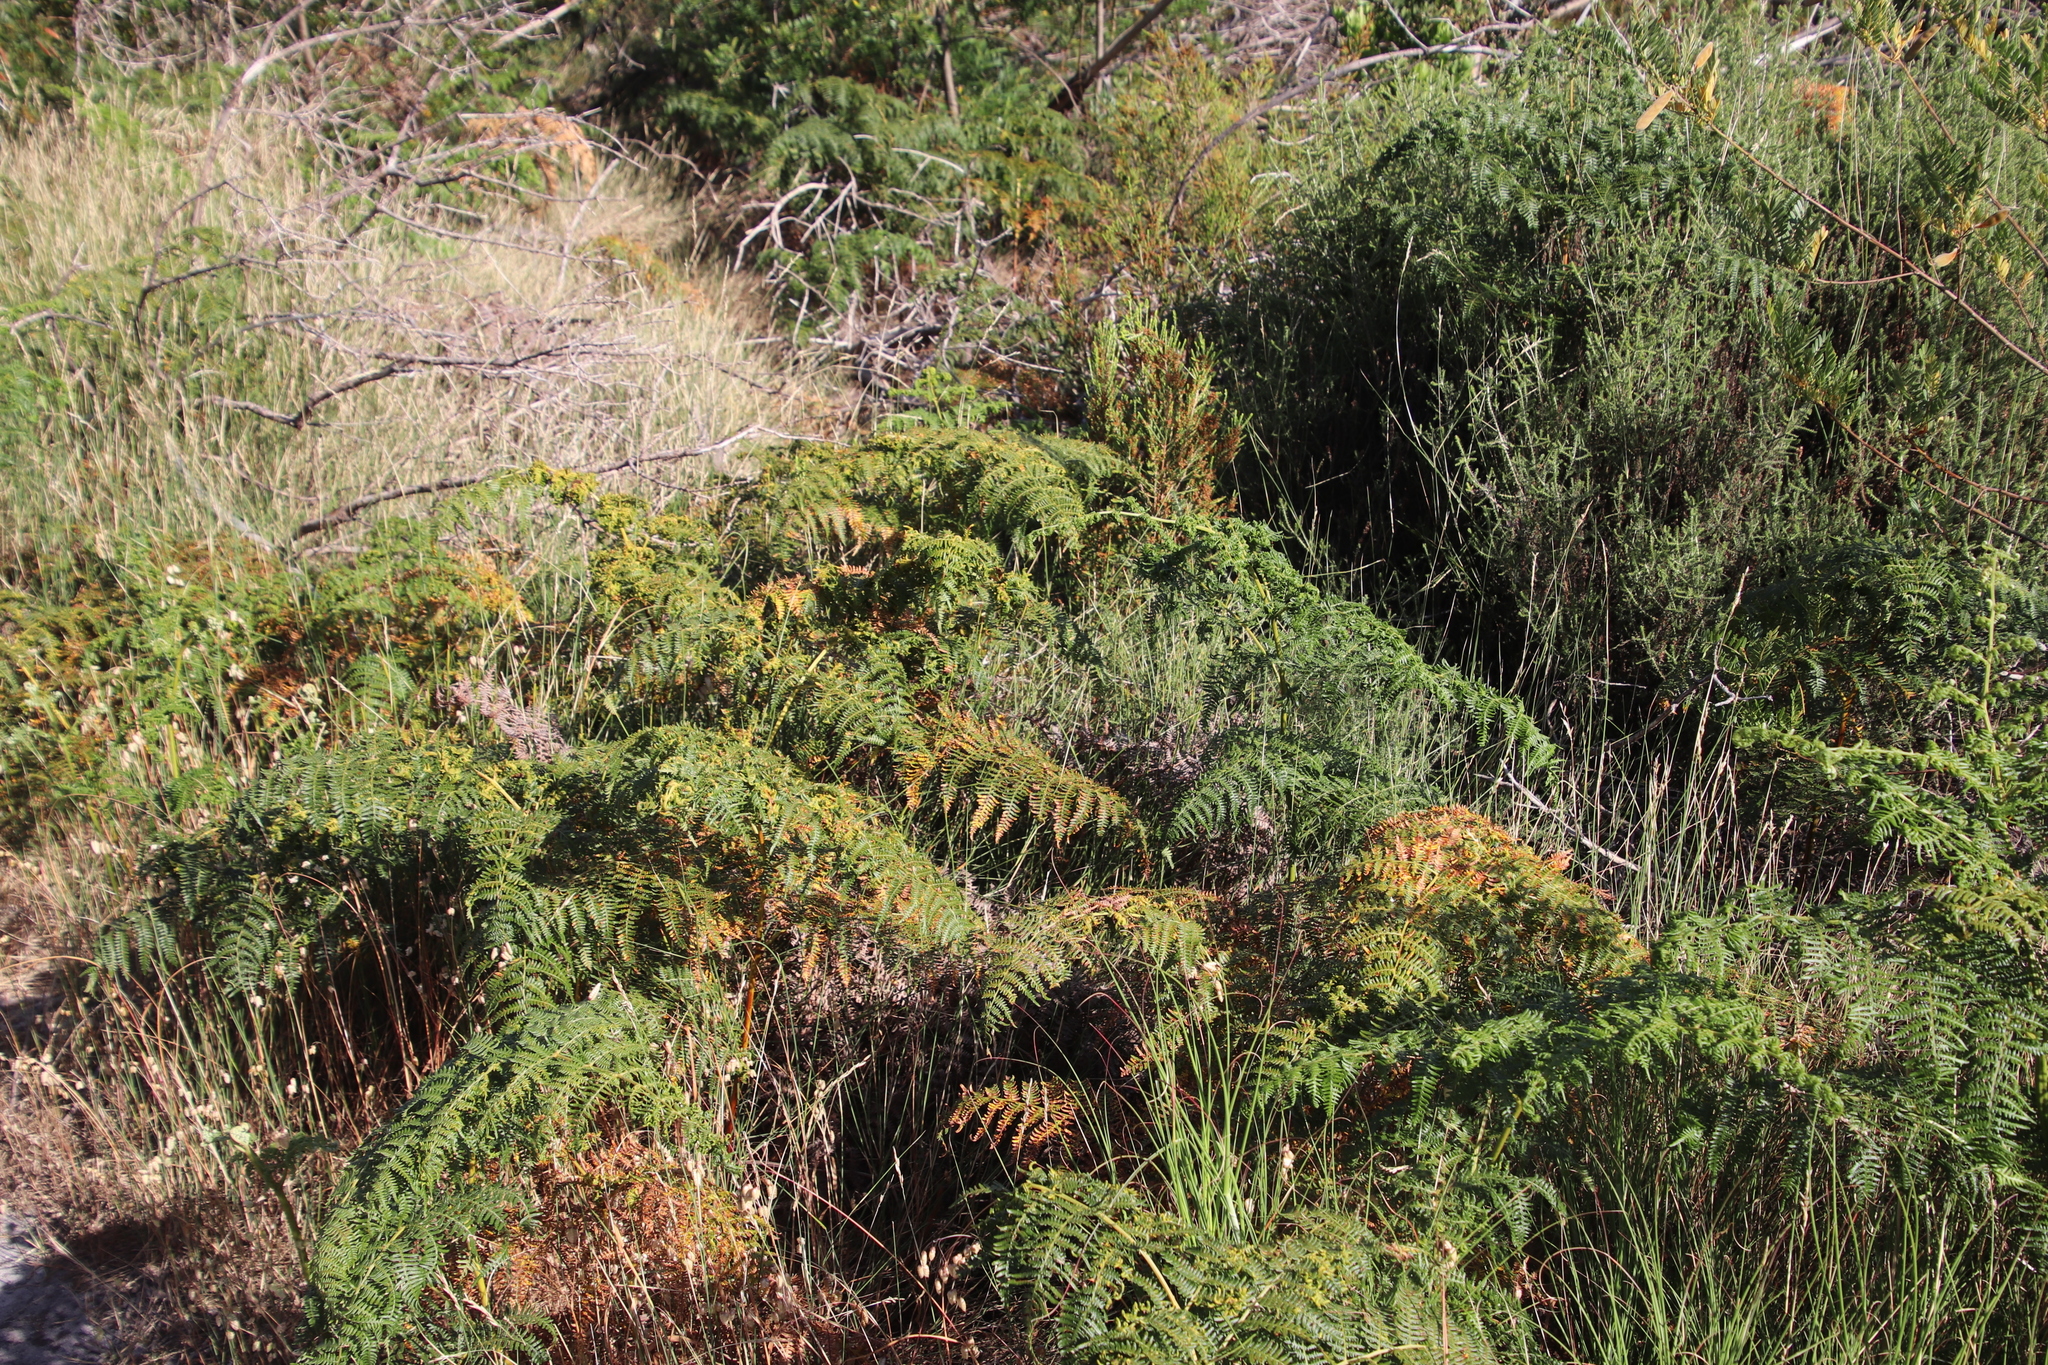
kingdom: Plantae
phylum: Tracheophyta
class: Polypodiopsida
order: Polypodiales
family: Dennstaedtiaceae
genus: Pteridium
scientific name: Pteridium aquilinum
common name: Bracken
